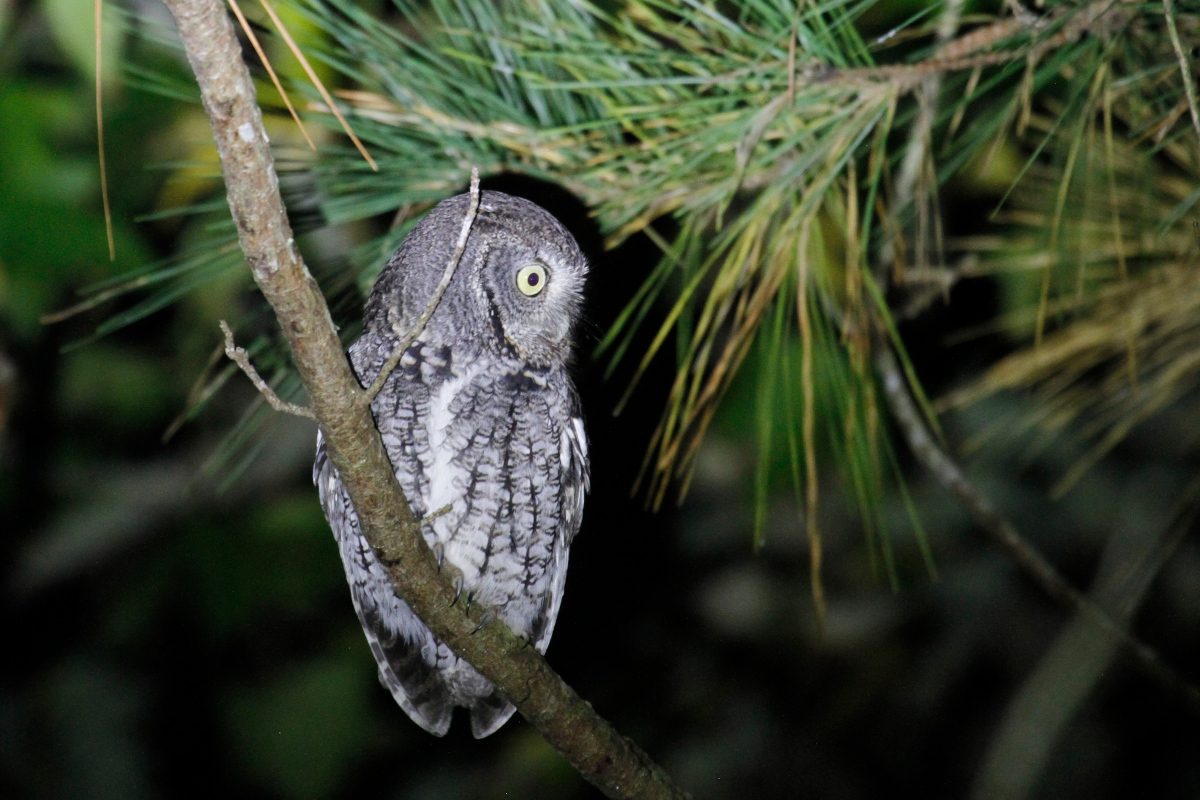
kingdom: Animalia
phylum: Chordata
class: Aves
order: Strigiformes
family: Strigidae
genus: Megascops
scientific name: Megascops asio
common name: Eastern screech-owl
